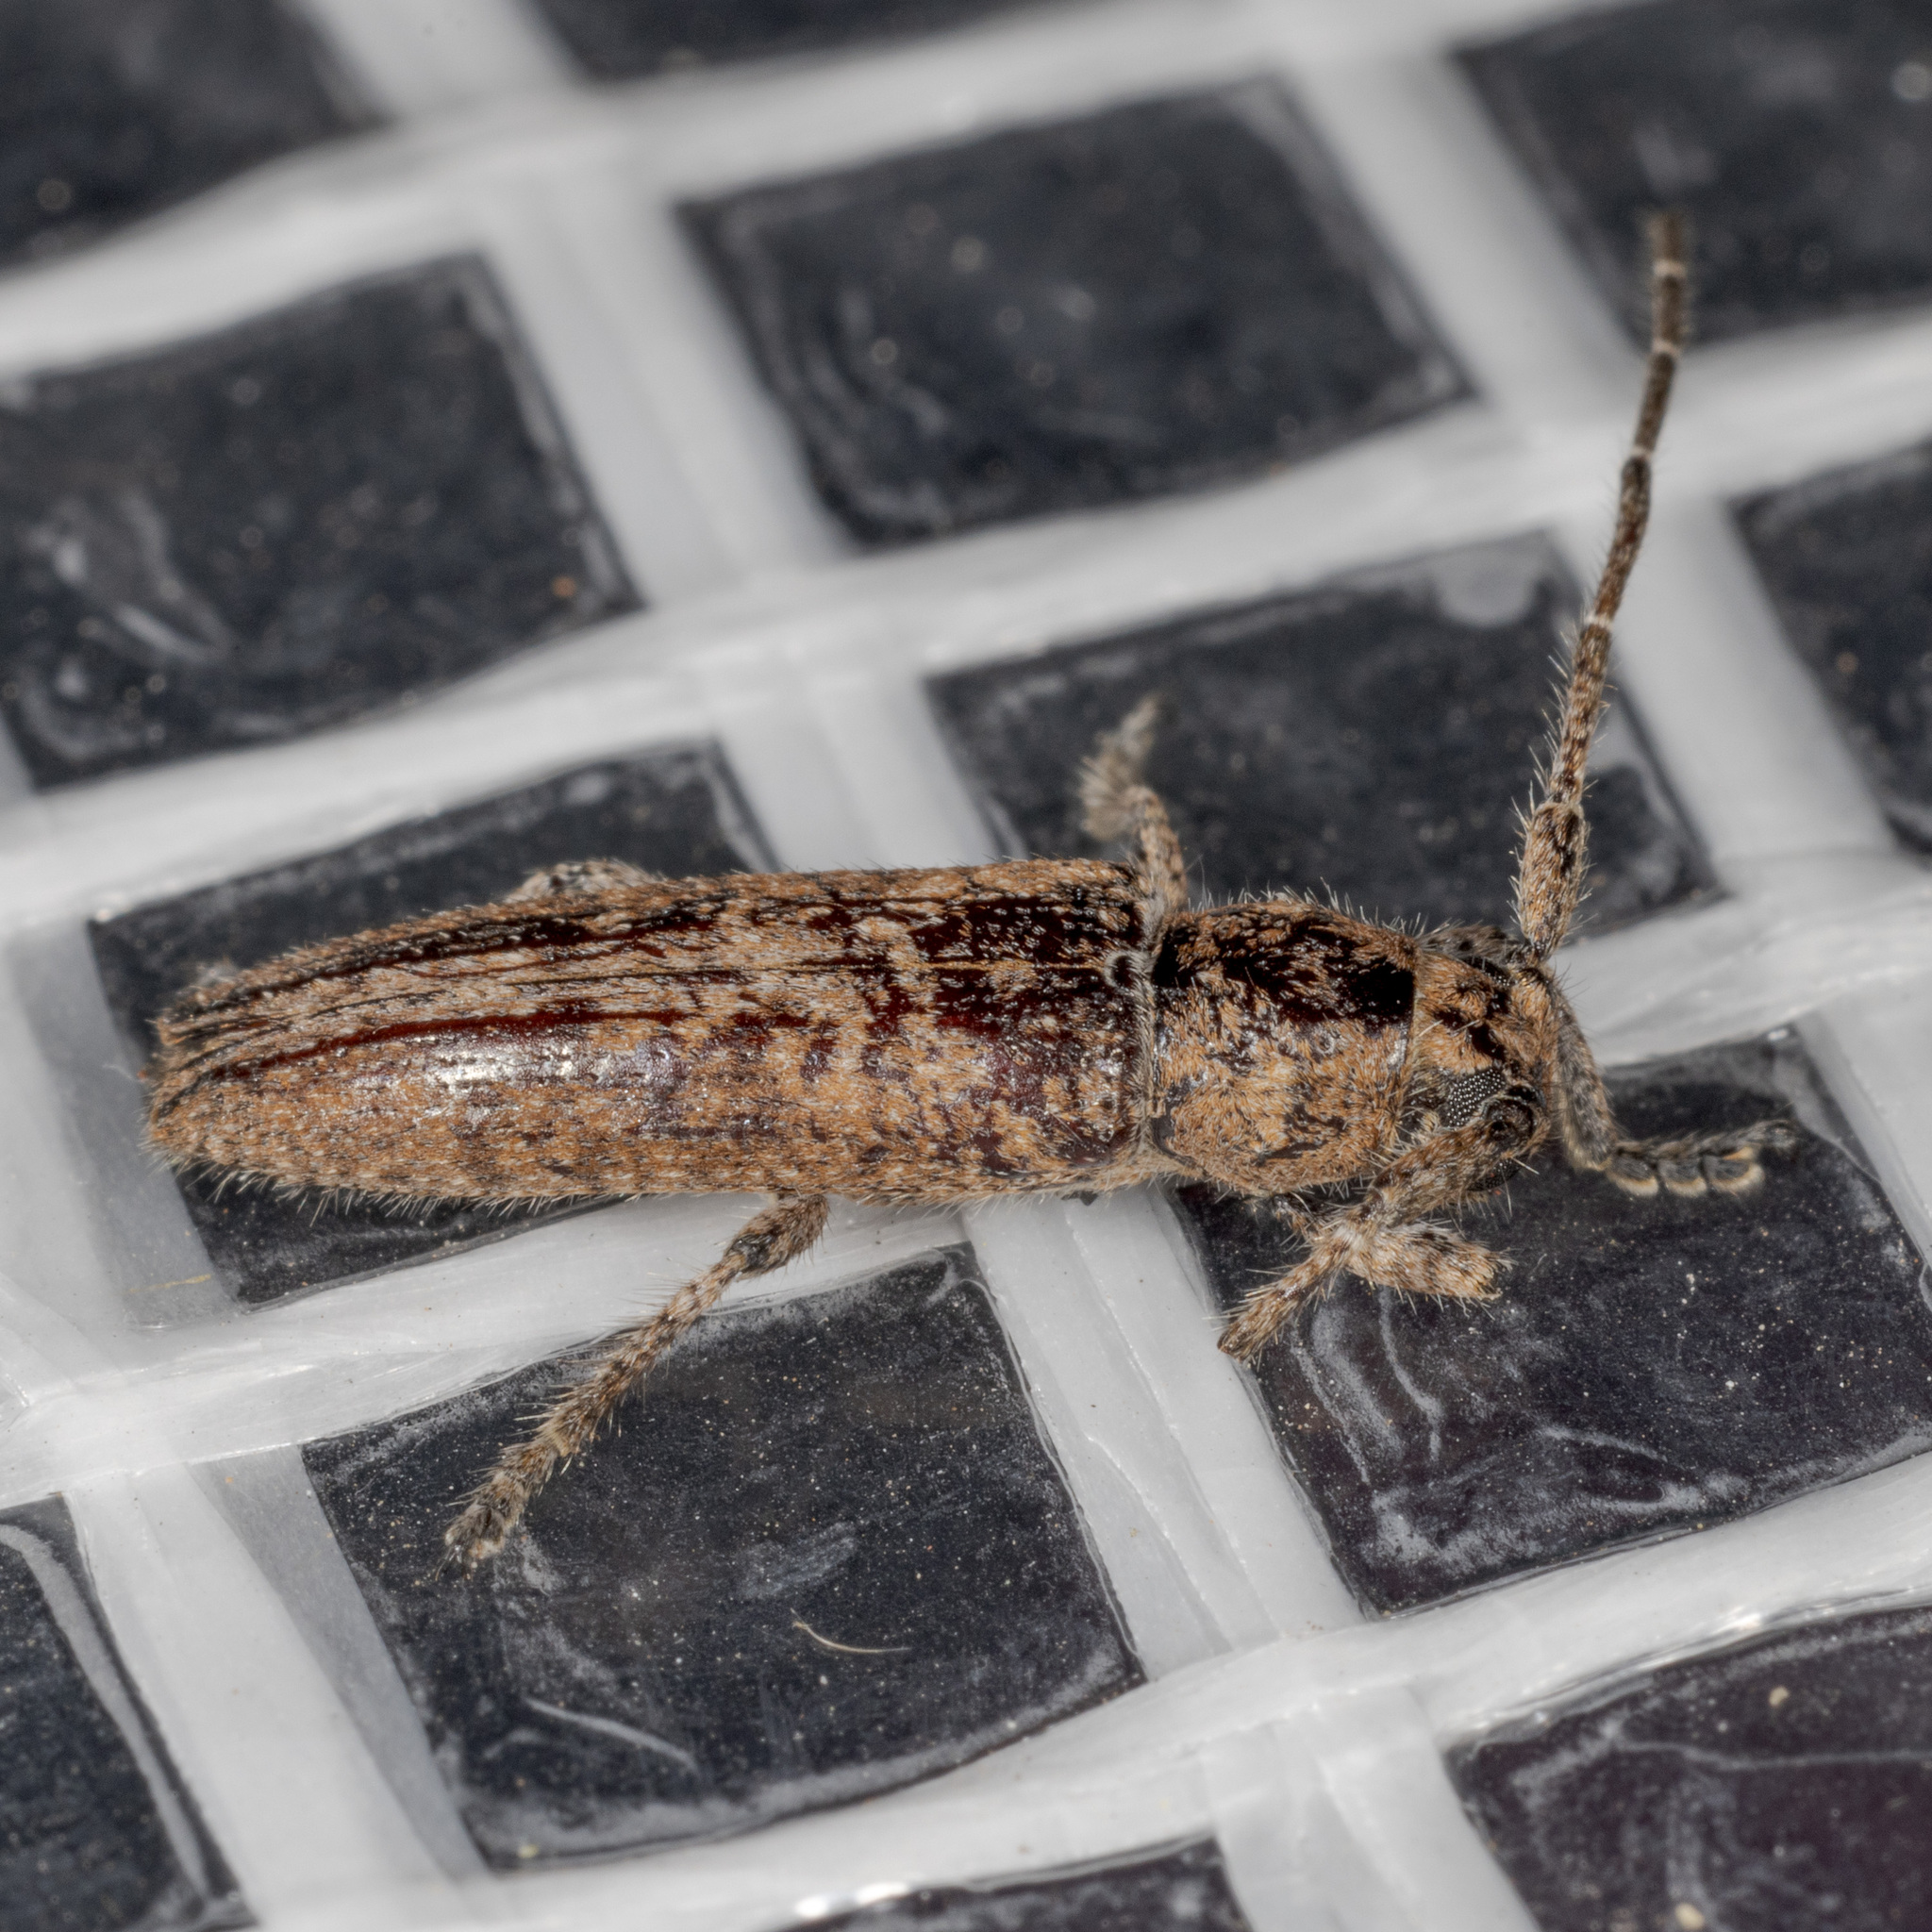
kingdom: Animalia
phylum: Arthropoda
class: Insecta
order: Coleoptera
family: Cerambycidae
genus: Ataxia
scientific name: Ataxia crypta
